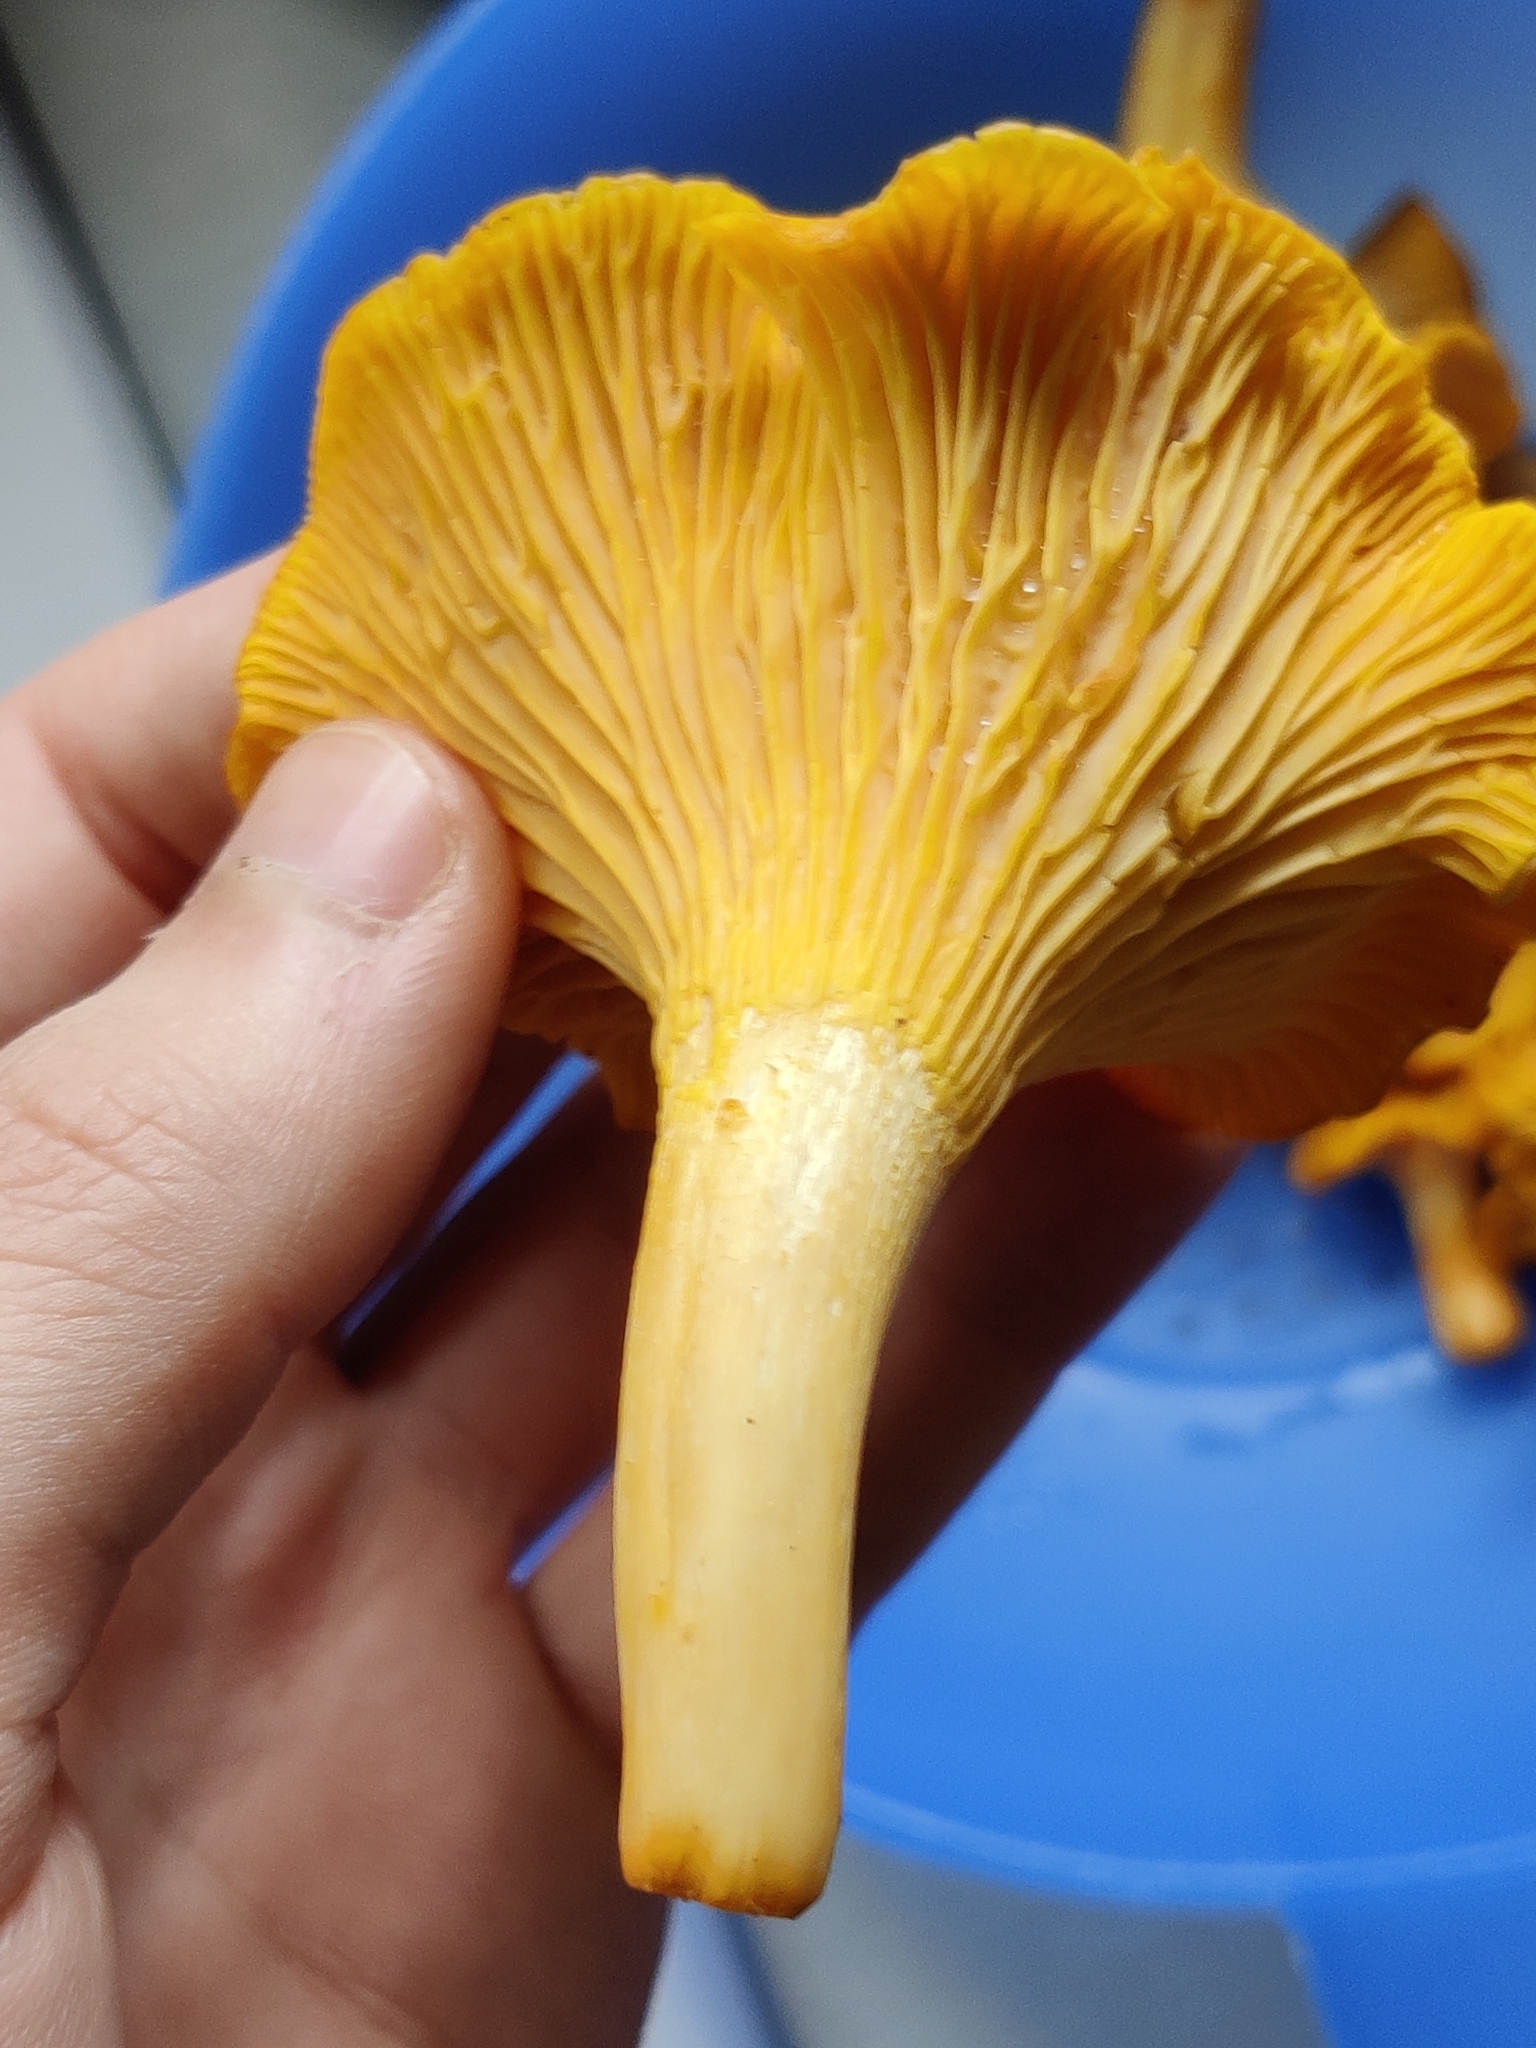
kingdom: Fungi
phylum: Basidiomycota
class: Agaricomycetes
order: Cantharellales
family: Hydnaceae
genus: Cantharellus
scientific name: Cantharellus cibarius
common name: Chanterelle
